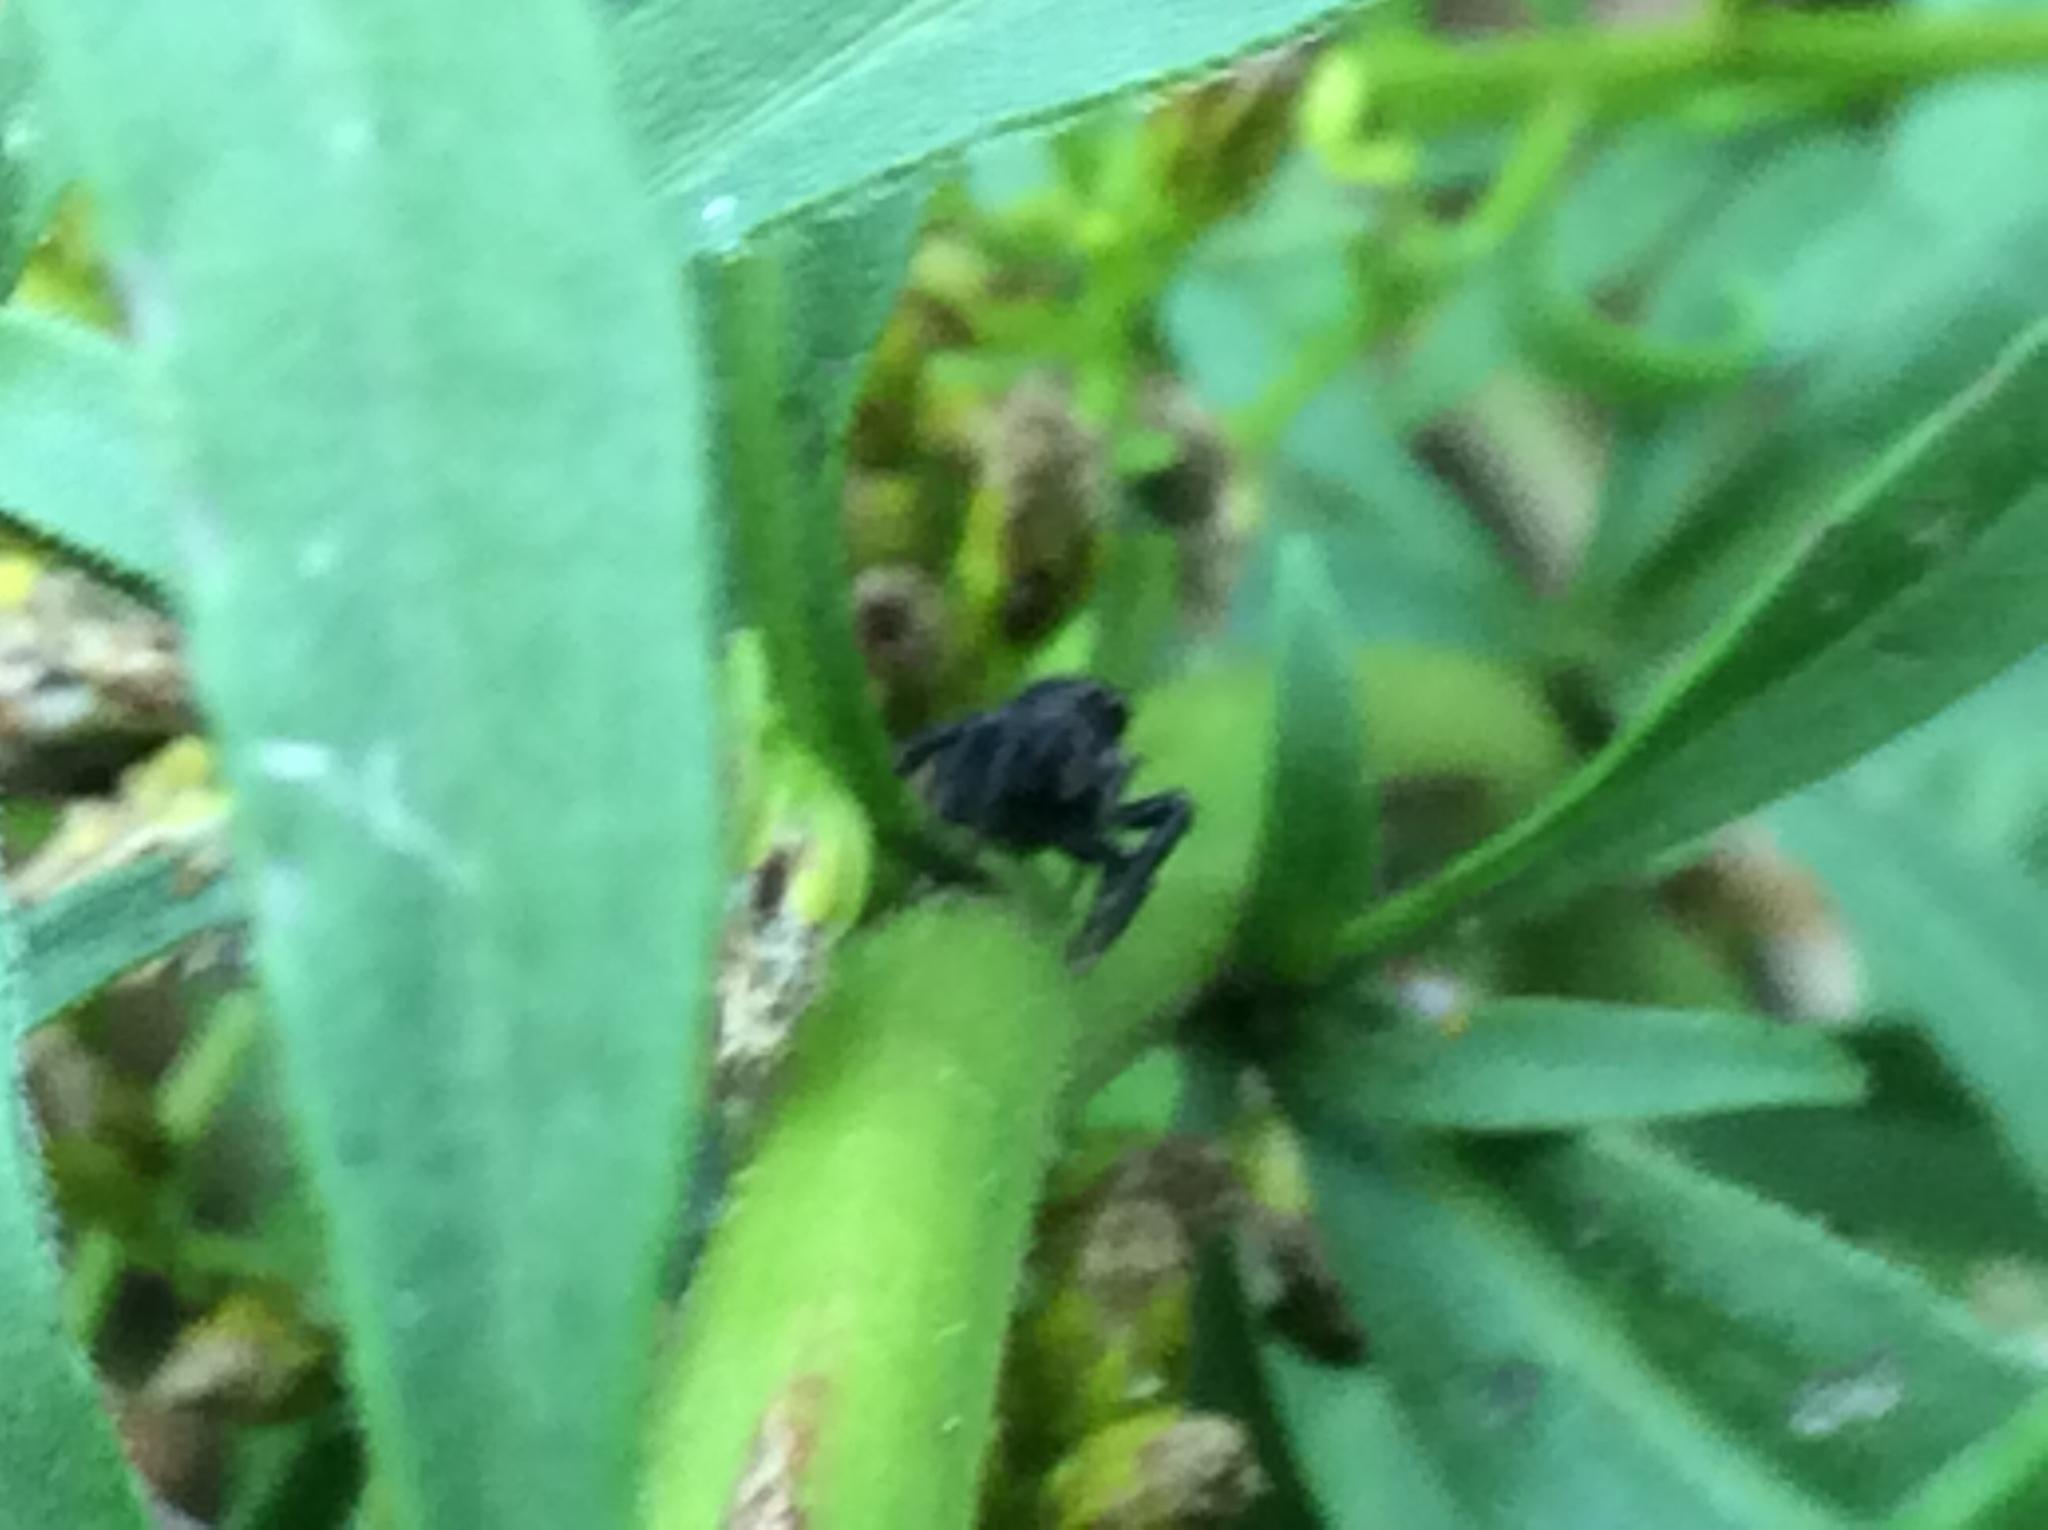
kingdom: Animalia
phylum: Arthropoda
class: Arachnida
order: Araneae
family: Salticidae
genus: Phidippus
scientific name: Phidippus audax
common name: Bold jumper
